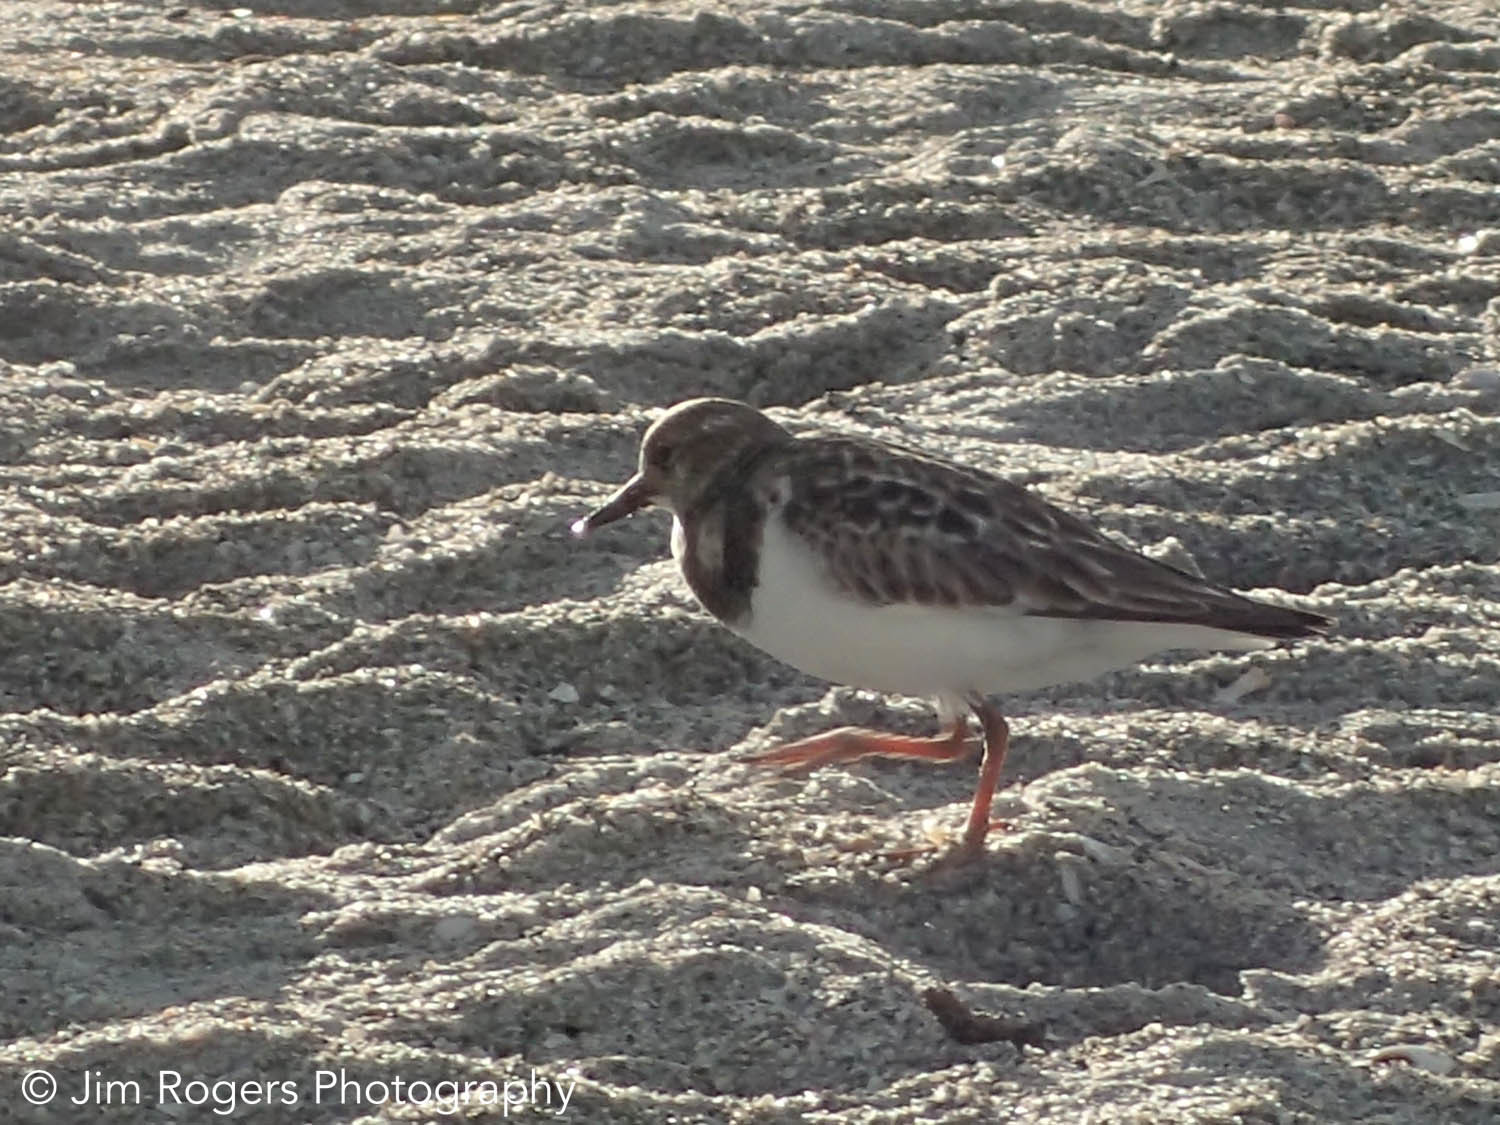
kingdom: Animalia
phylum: Chordata
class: Aves
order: Charadriiformes
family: Scolopacidae
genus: Arenaria
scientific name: Arenaria interpres
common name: Ruddy turnstone
